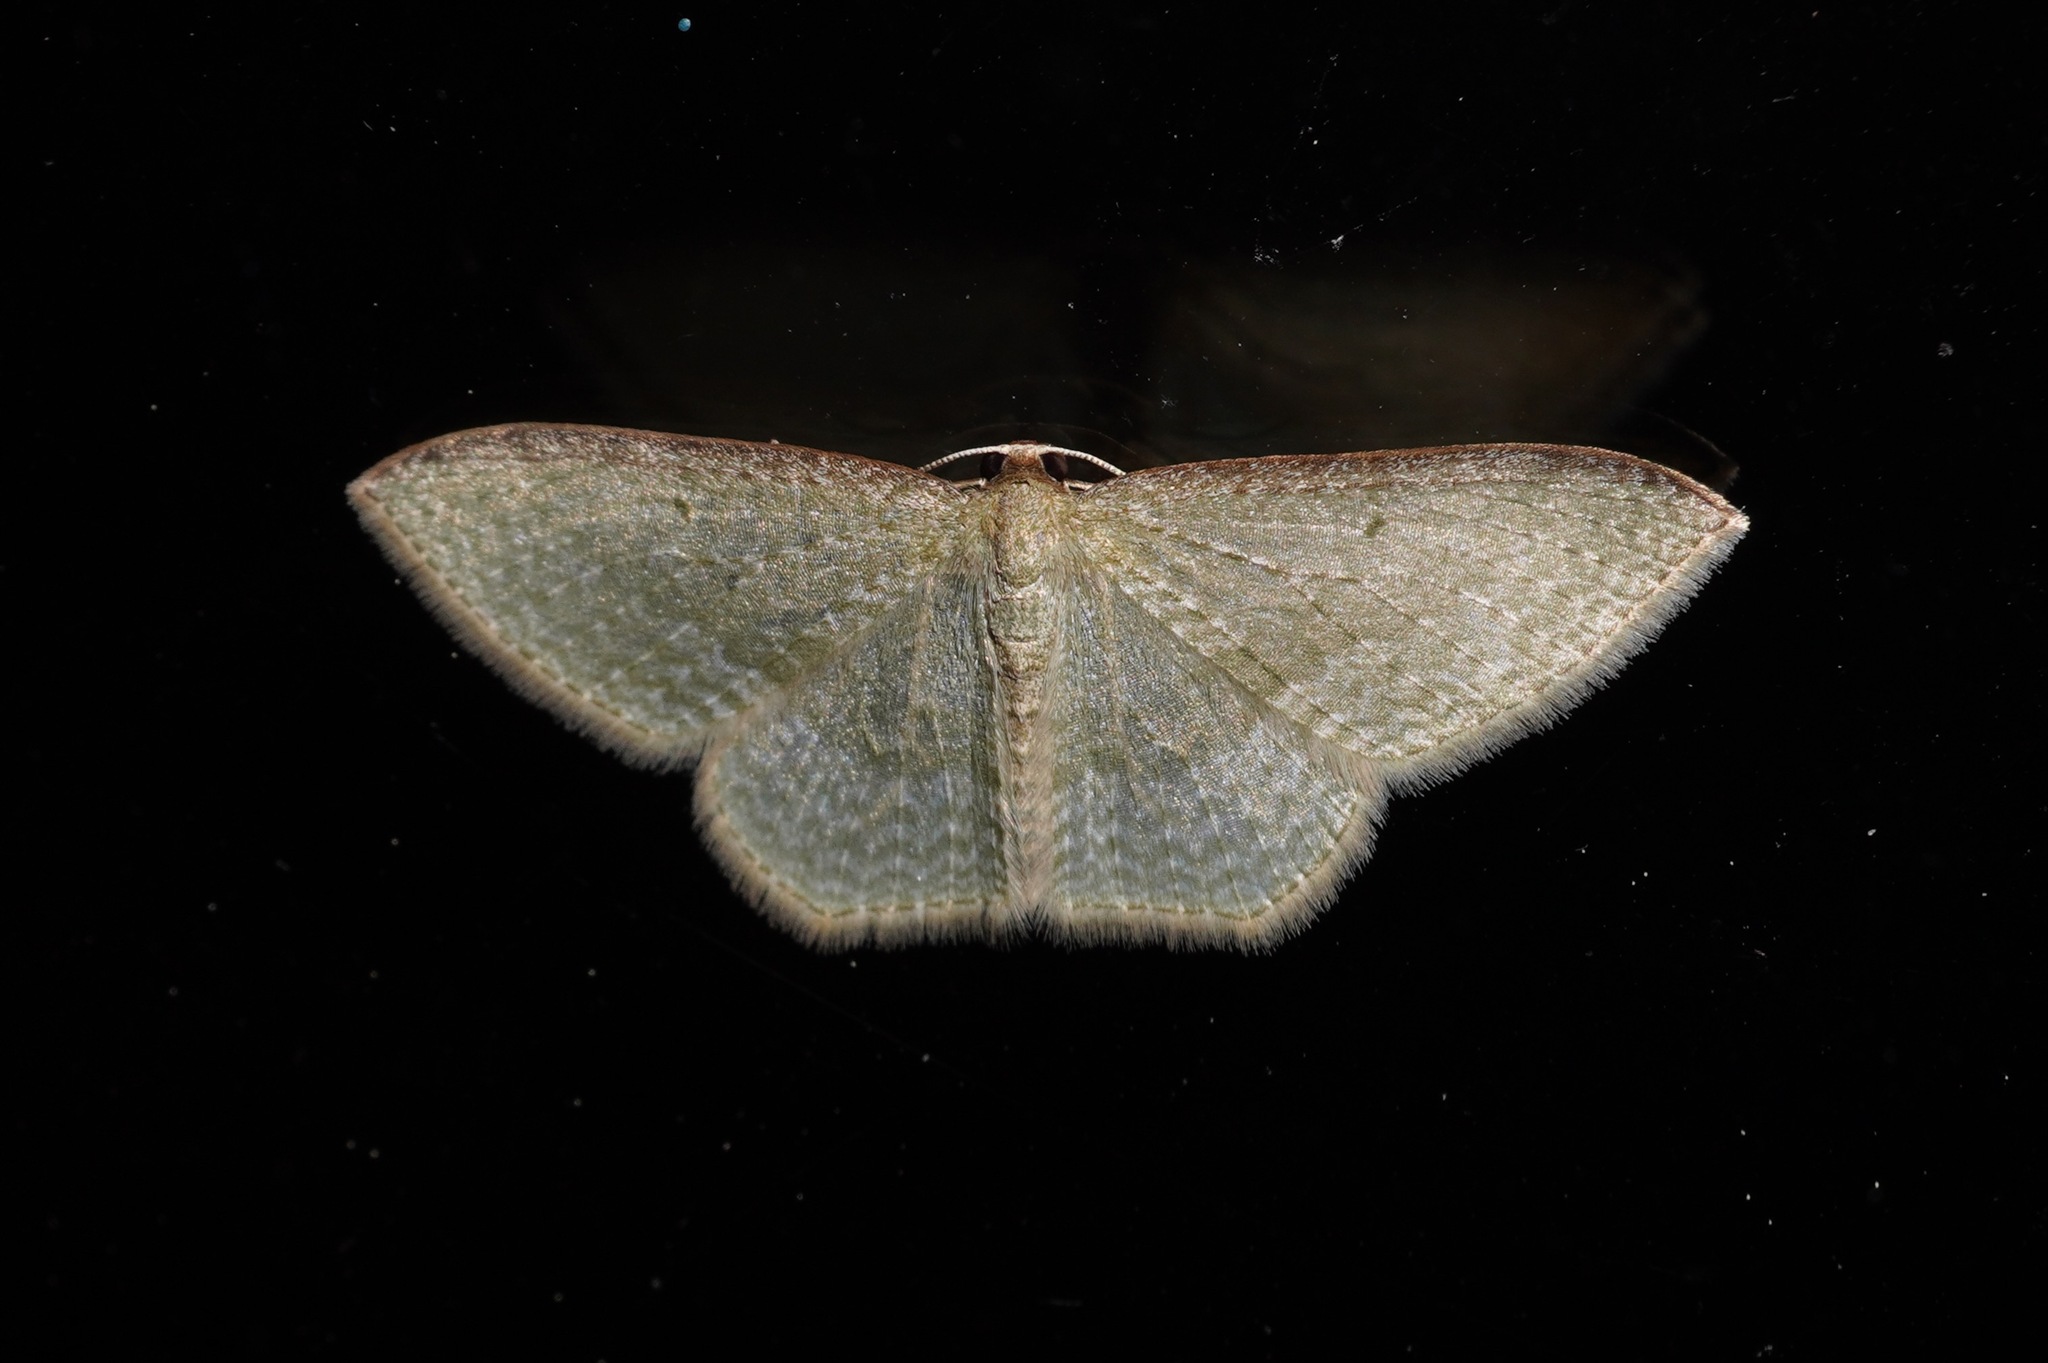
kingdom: Animalia
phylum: Arthropoda
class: Insecta
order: Lepidoptera
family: Geometridae
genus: Poecilasthena
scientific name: Poecilasthena pulchraria
